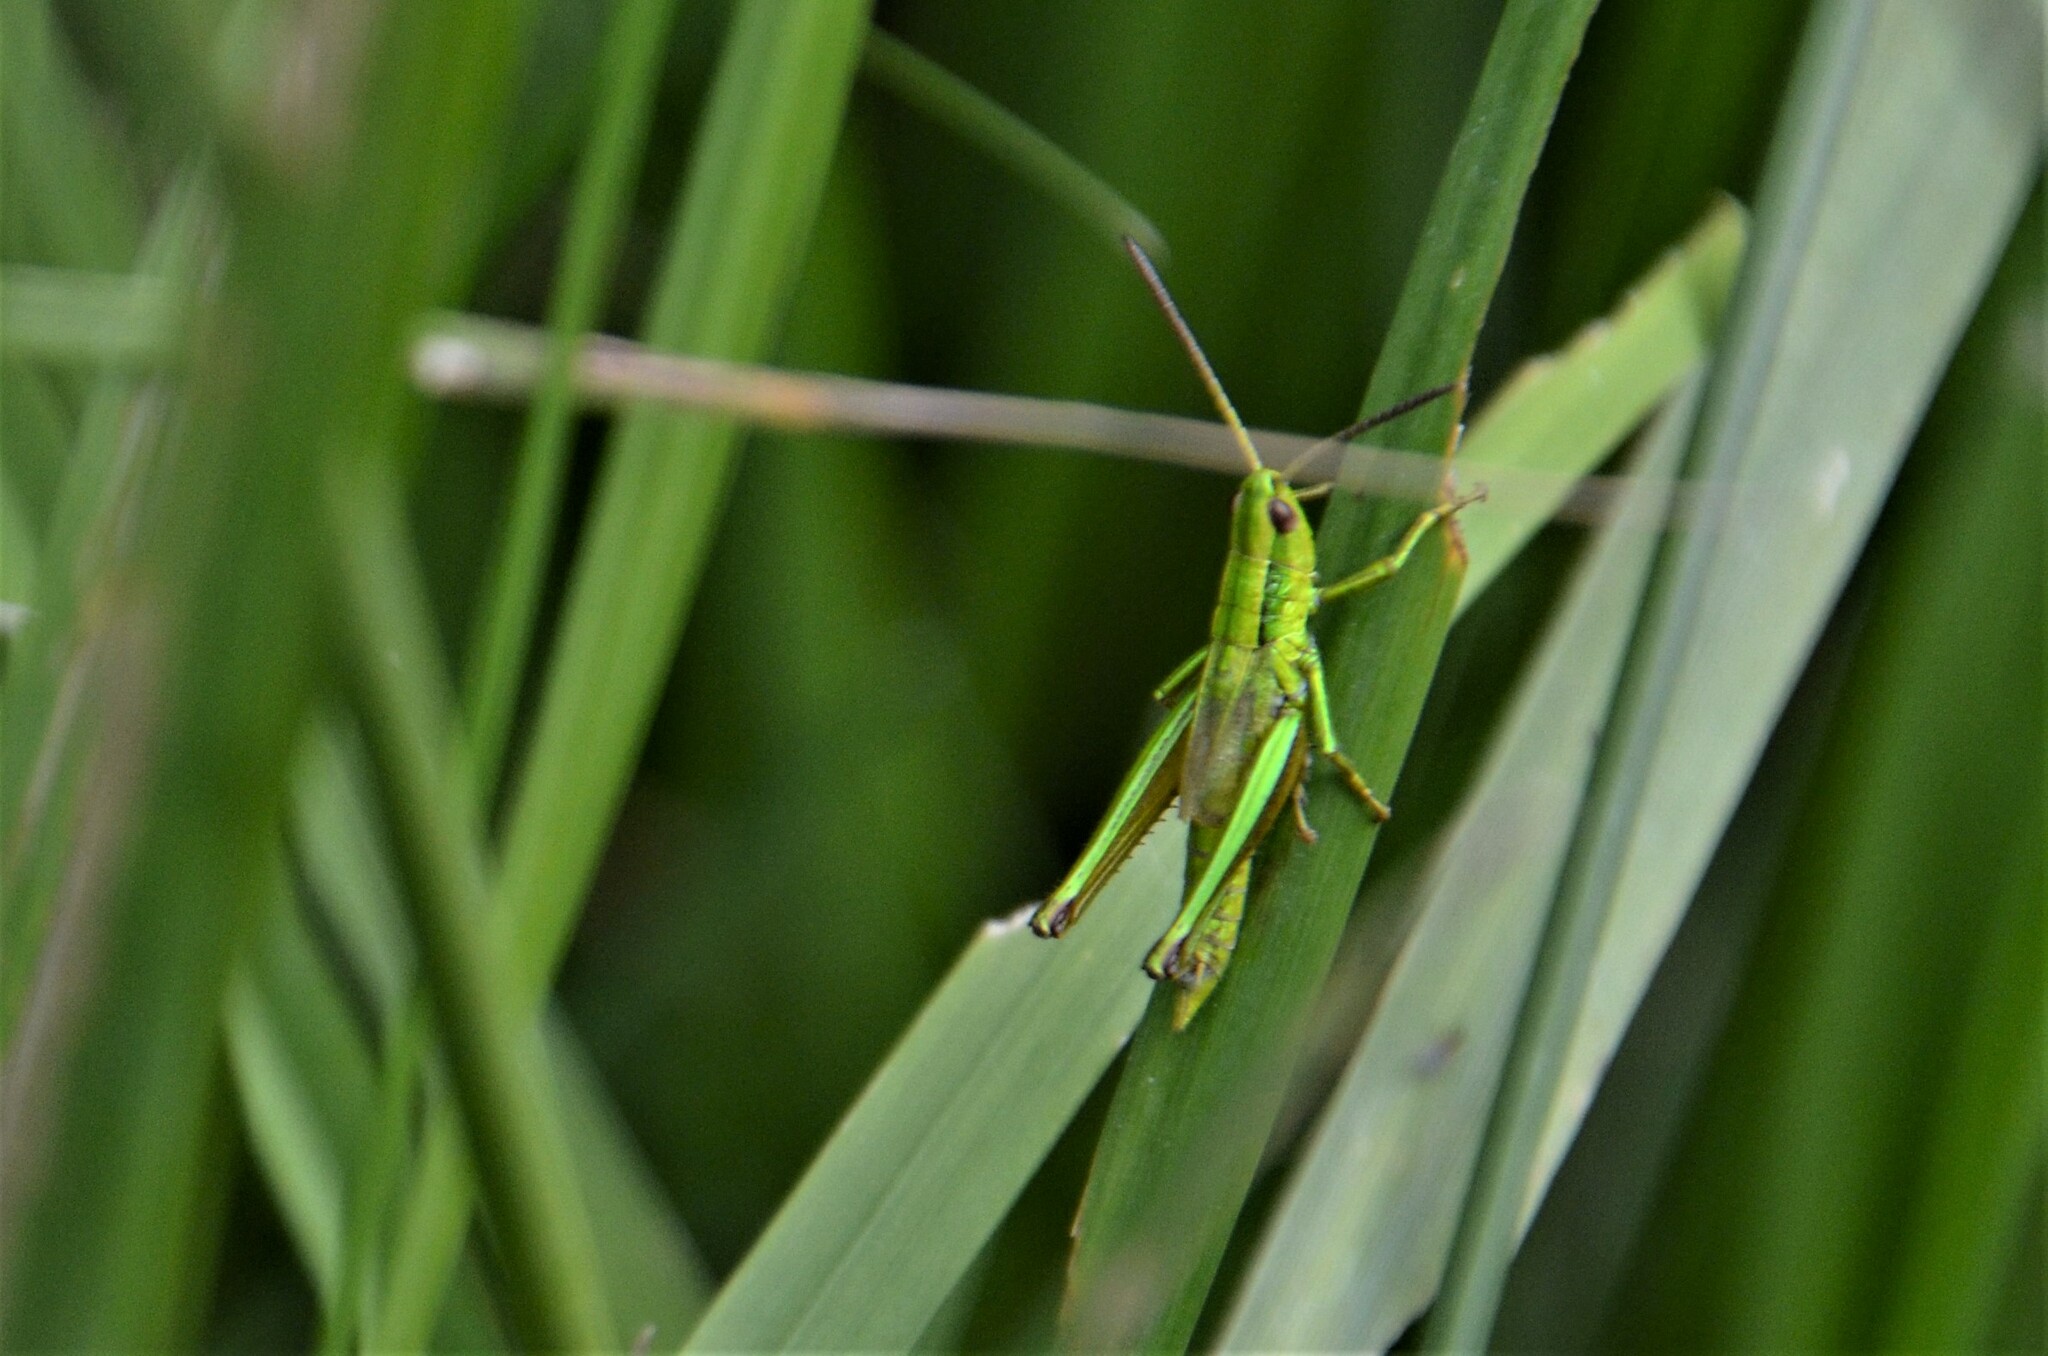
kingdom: Animalia
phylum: Arthropoda
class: Insecta
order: Orthoptera
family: Acrididae
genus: Euthystira
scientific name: Euthystira brachyptera
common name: Small gold grasshopper
